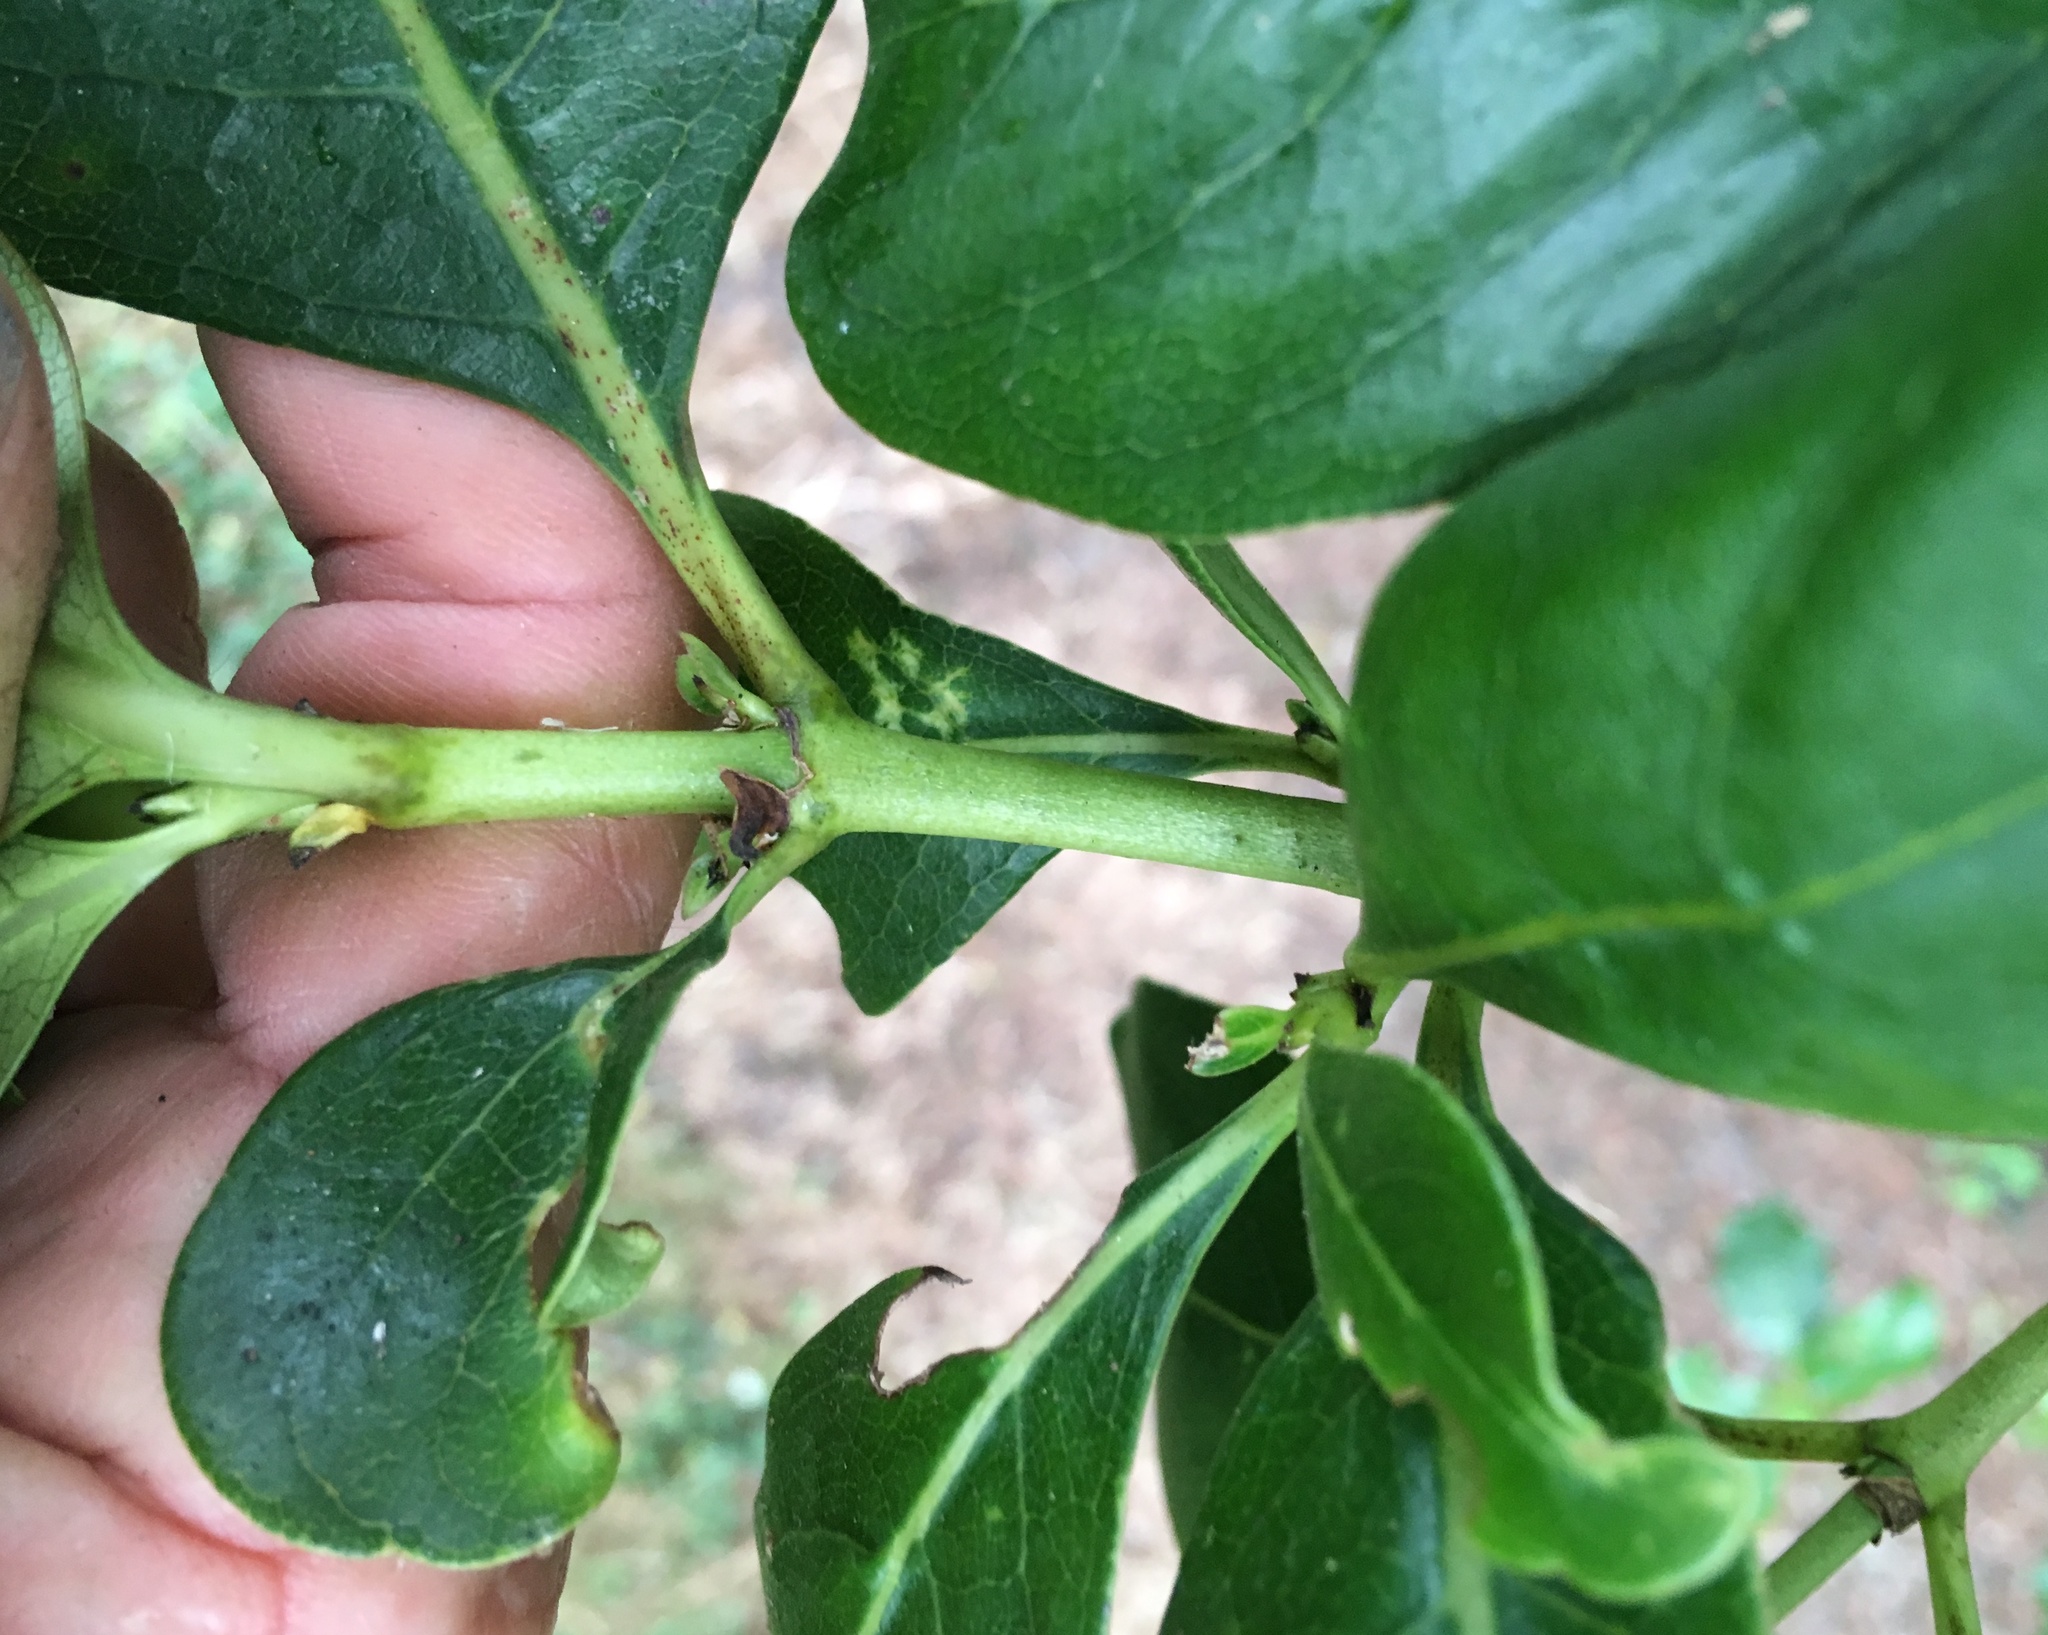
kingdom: Plantae
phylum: Tracheophyta
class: Magnoliopsida
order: Gentianales
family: Rubiaceae
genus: Coprosma
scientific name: Coprosma macrocarpa
